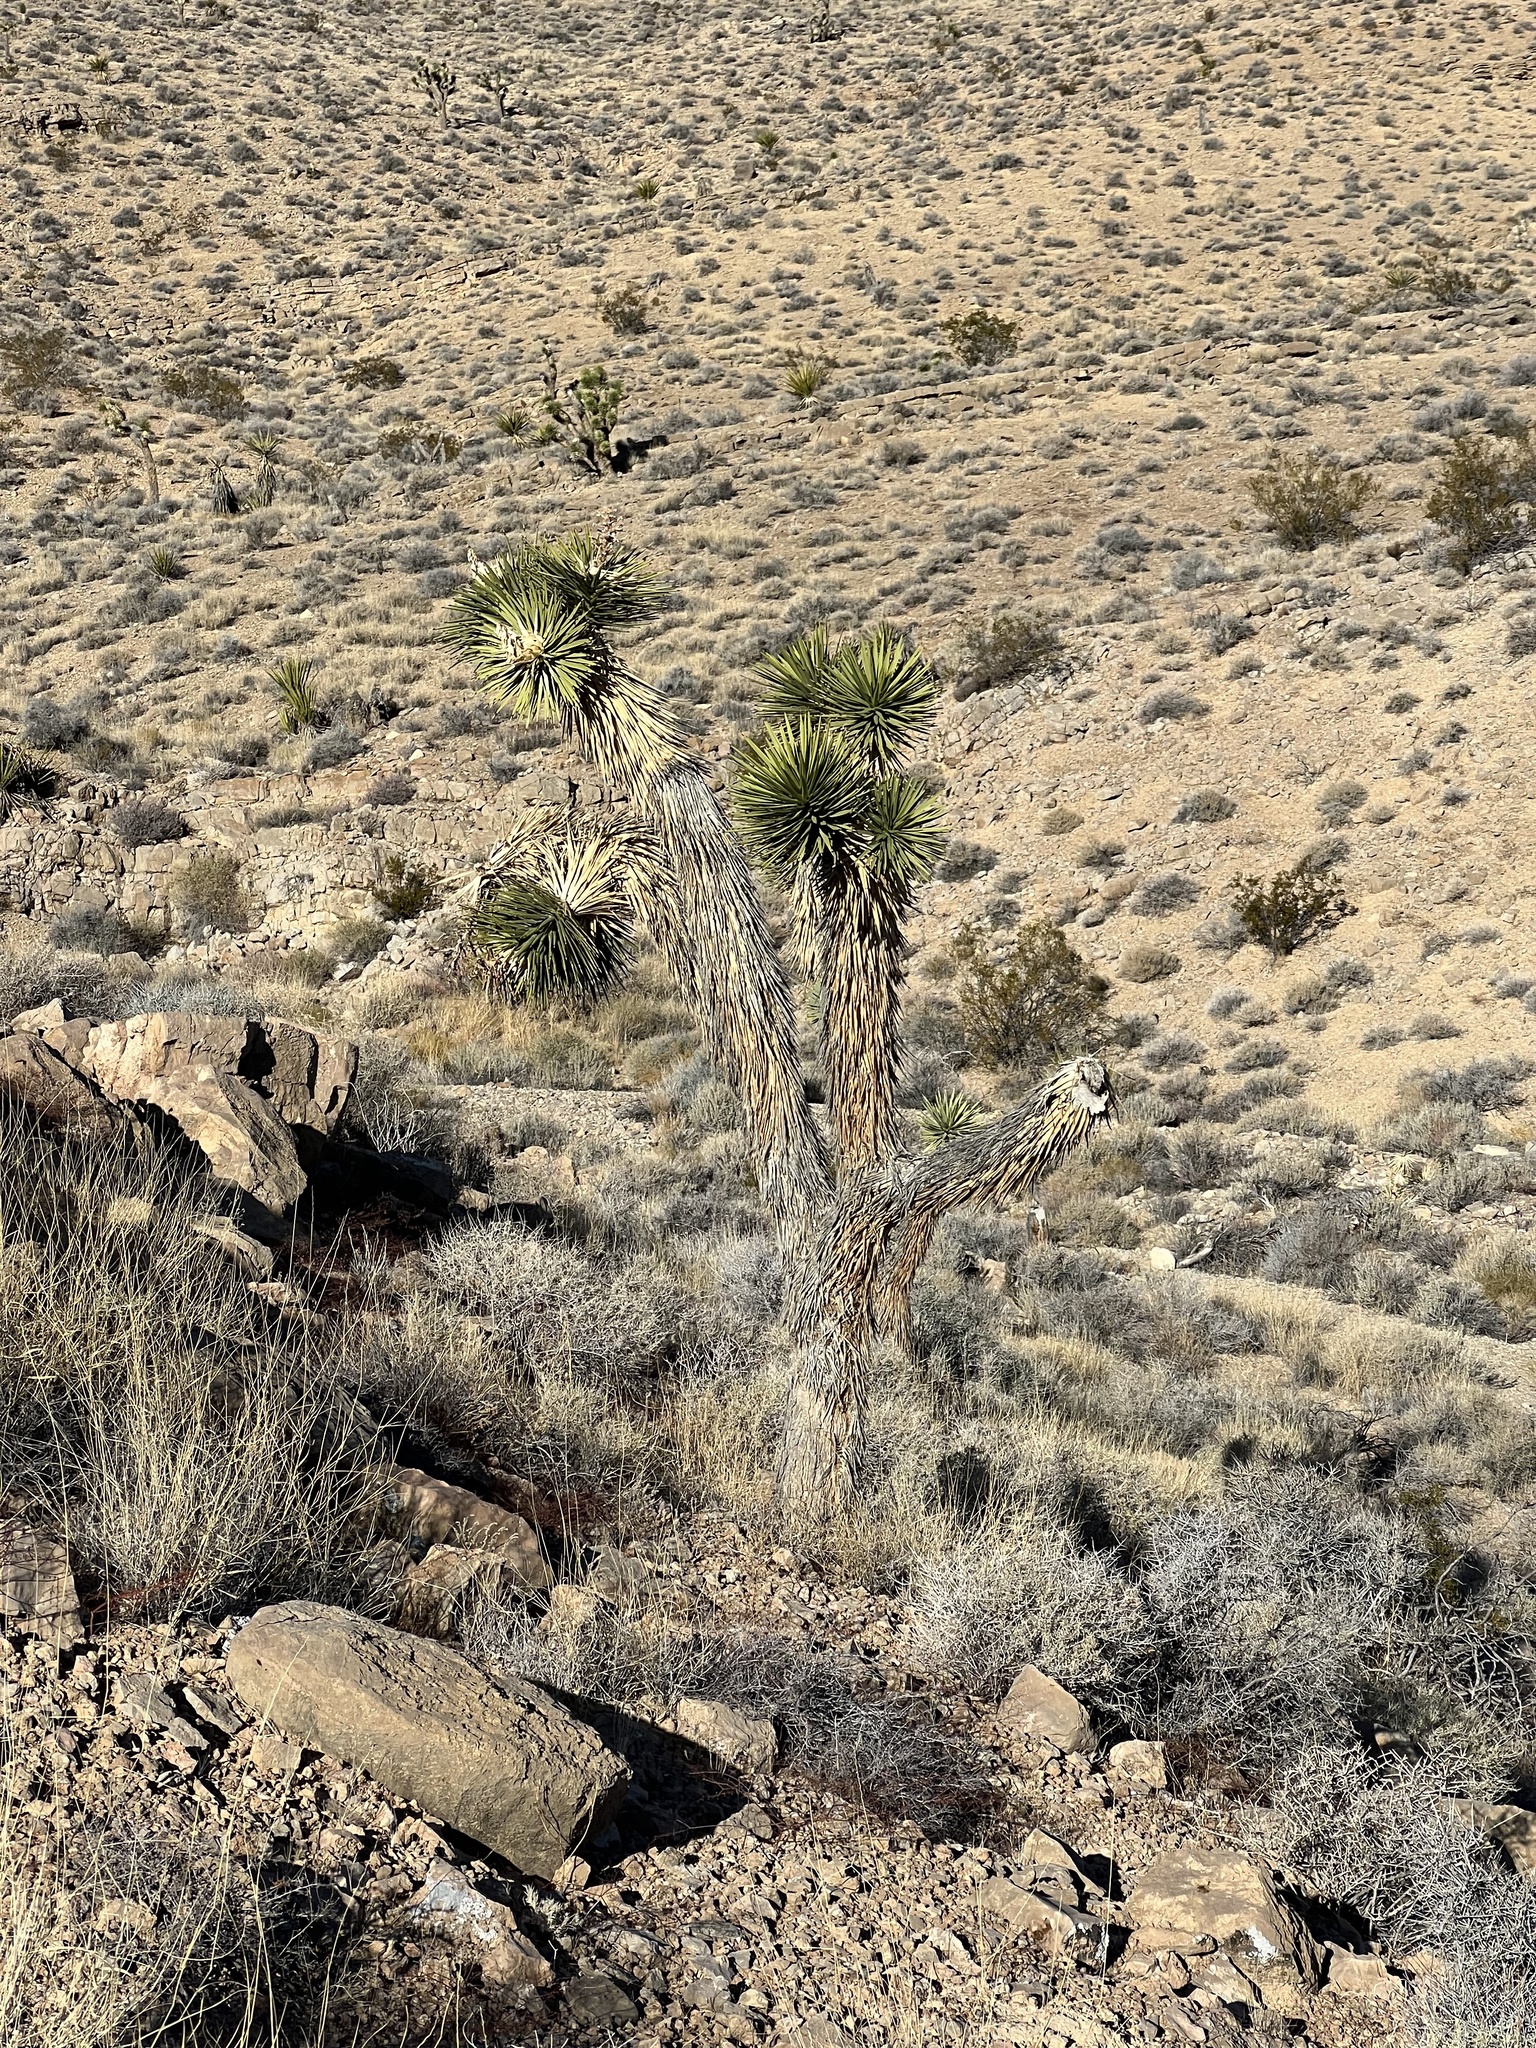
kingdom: Plantae
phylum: Tracheophyta
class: Liliopsida
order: Asparagales
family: Asparagaceae
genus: Yucca
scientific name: Yucca brevifolia
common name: Joshua tree
